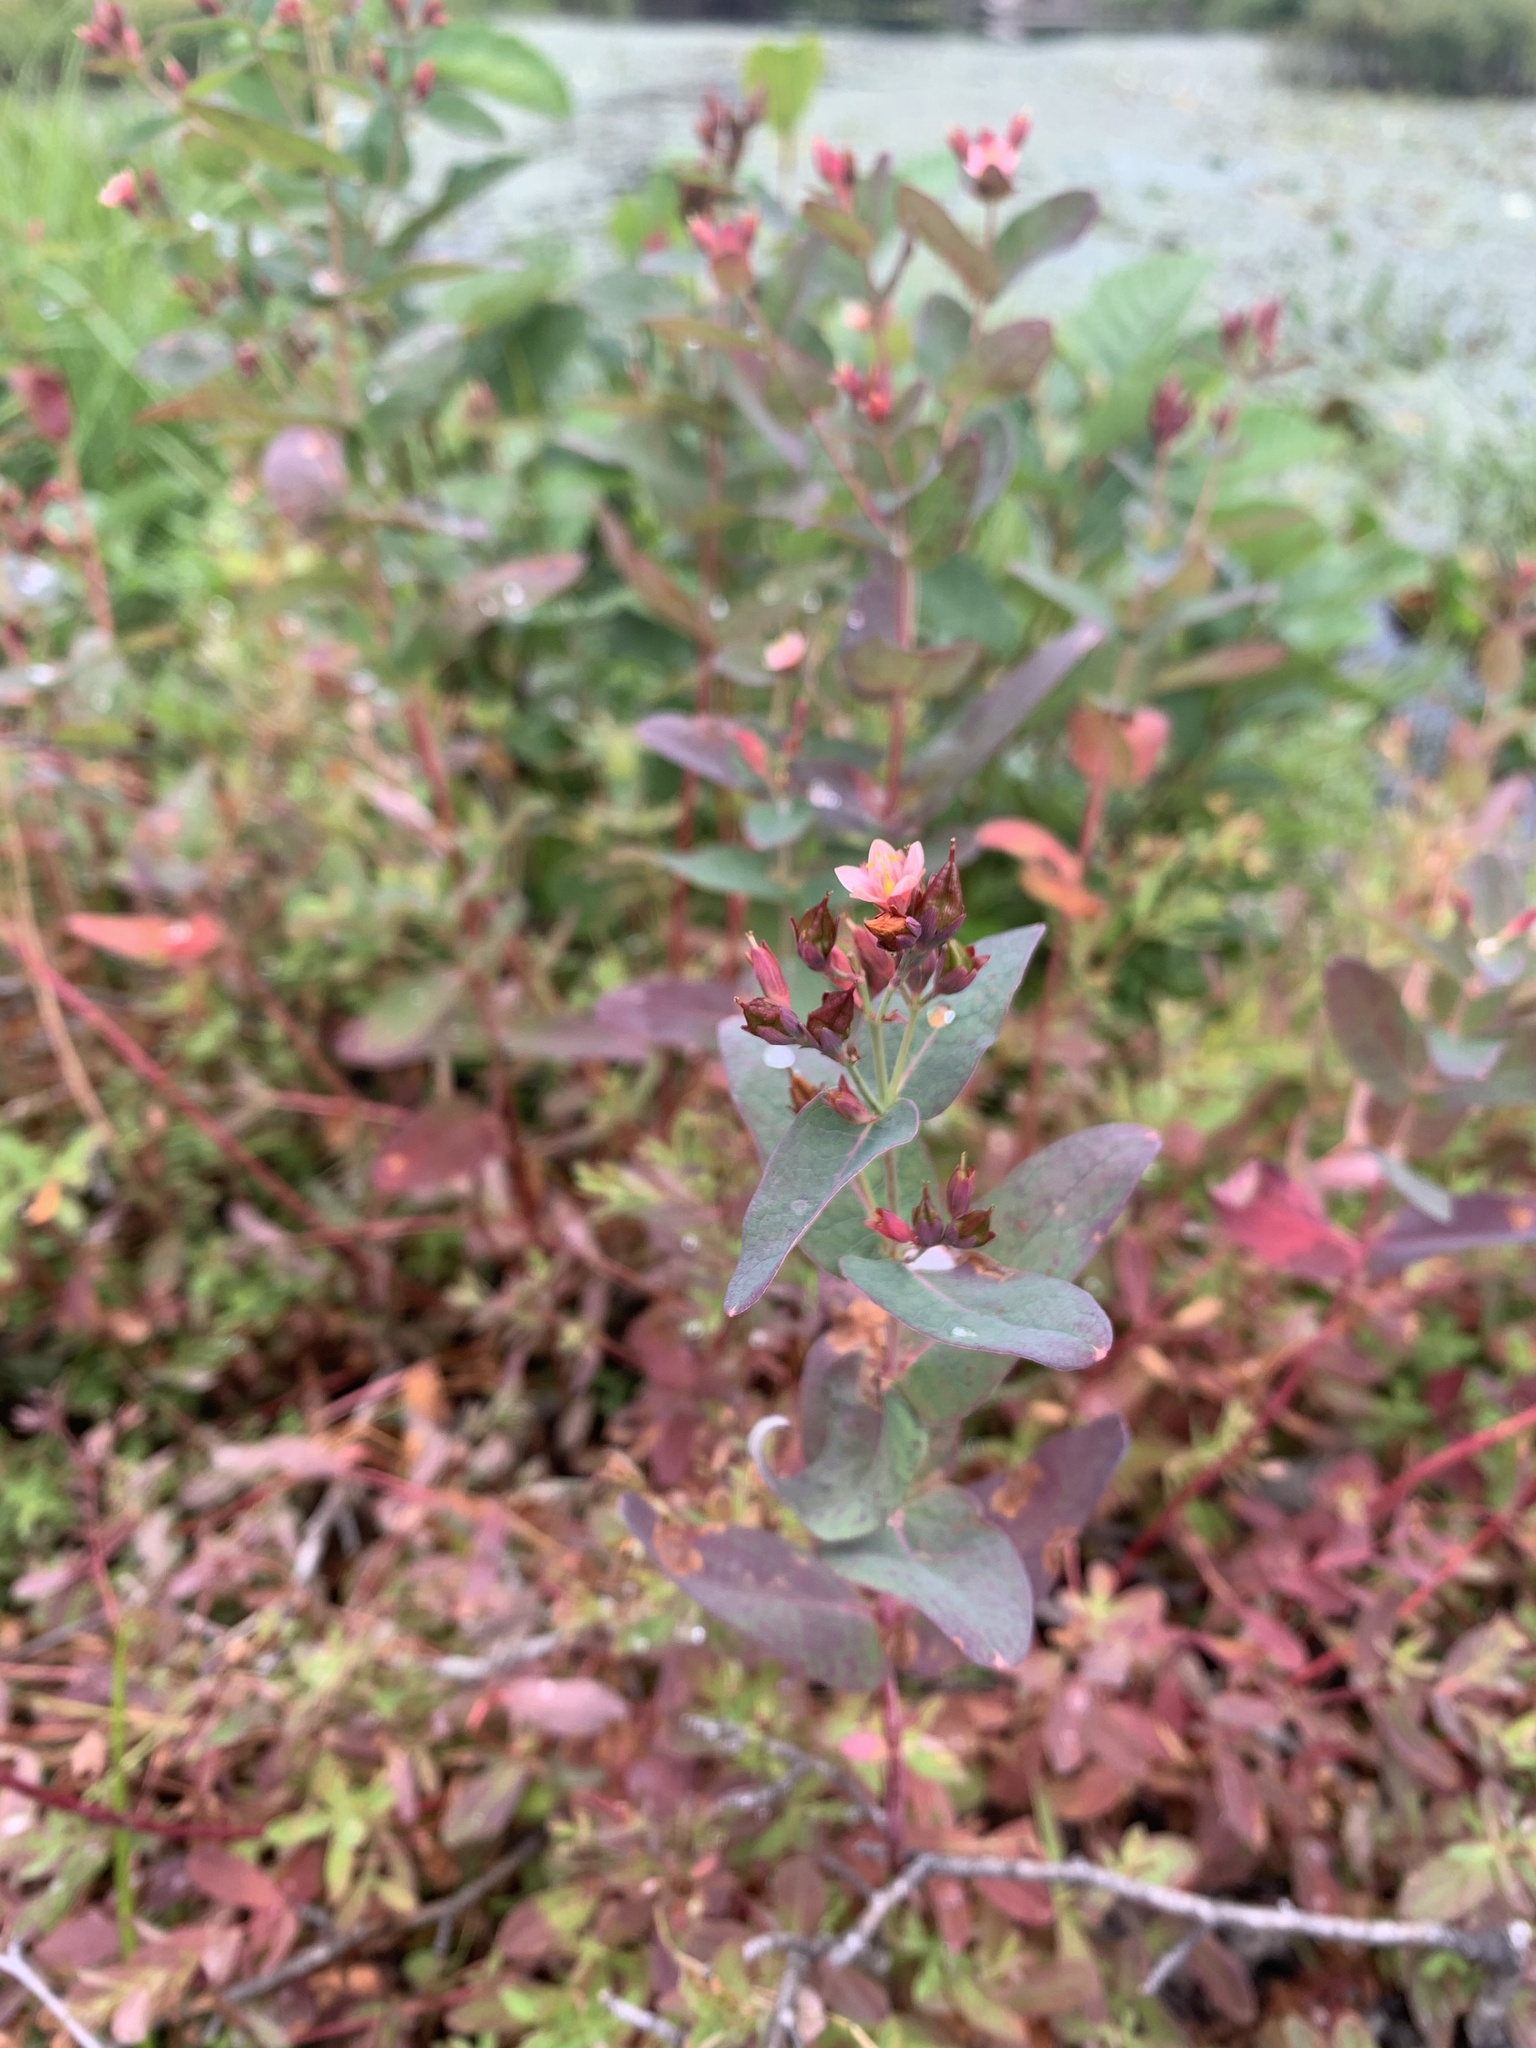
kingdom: Plantae
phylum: Tracheophyta
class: Magnoliopsida
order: Malpighiales
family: Hypericaceae
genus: Triadenum
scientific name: Triadenum fraseri
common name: Fraser's marsh st. johnswort
